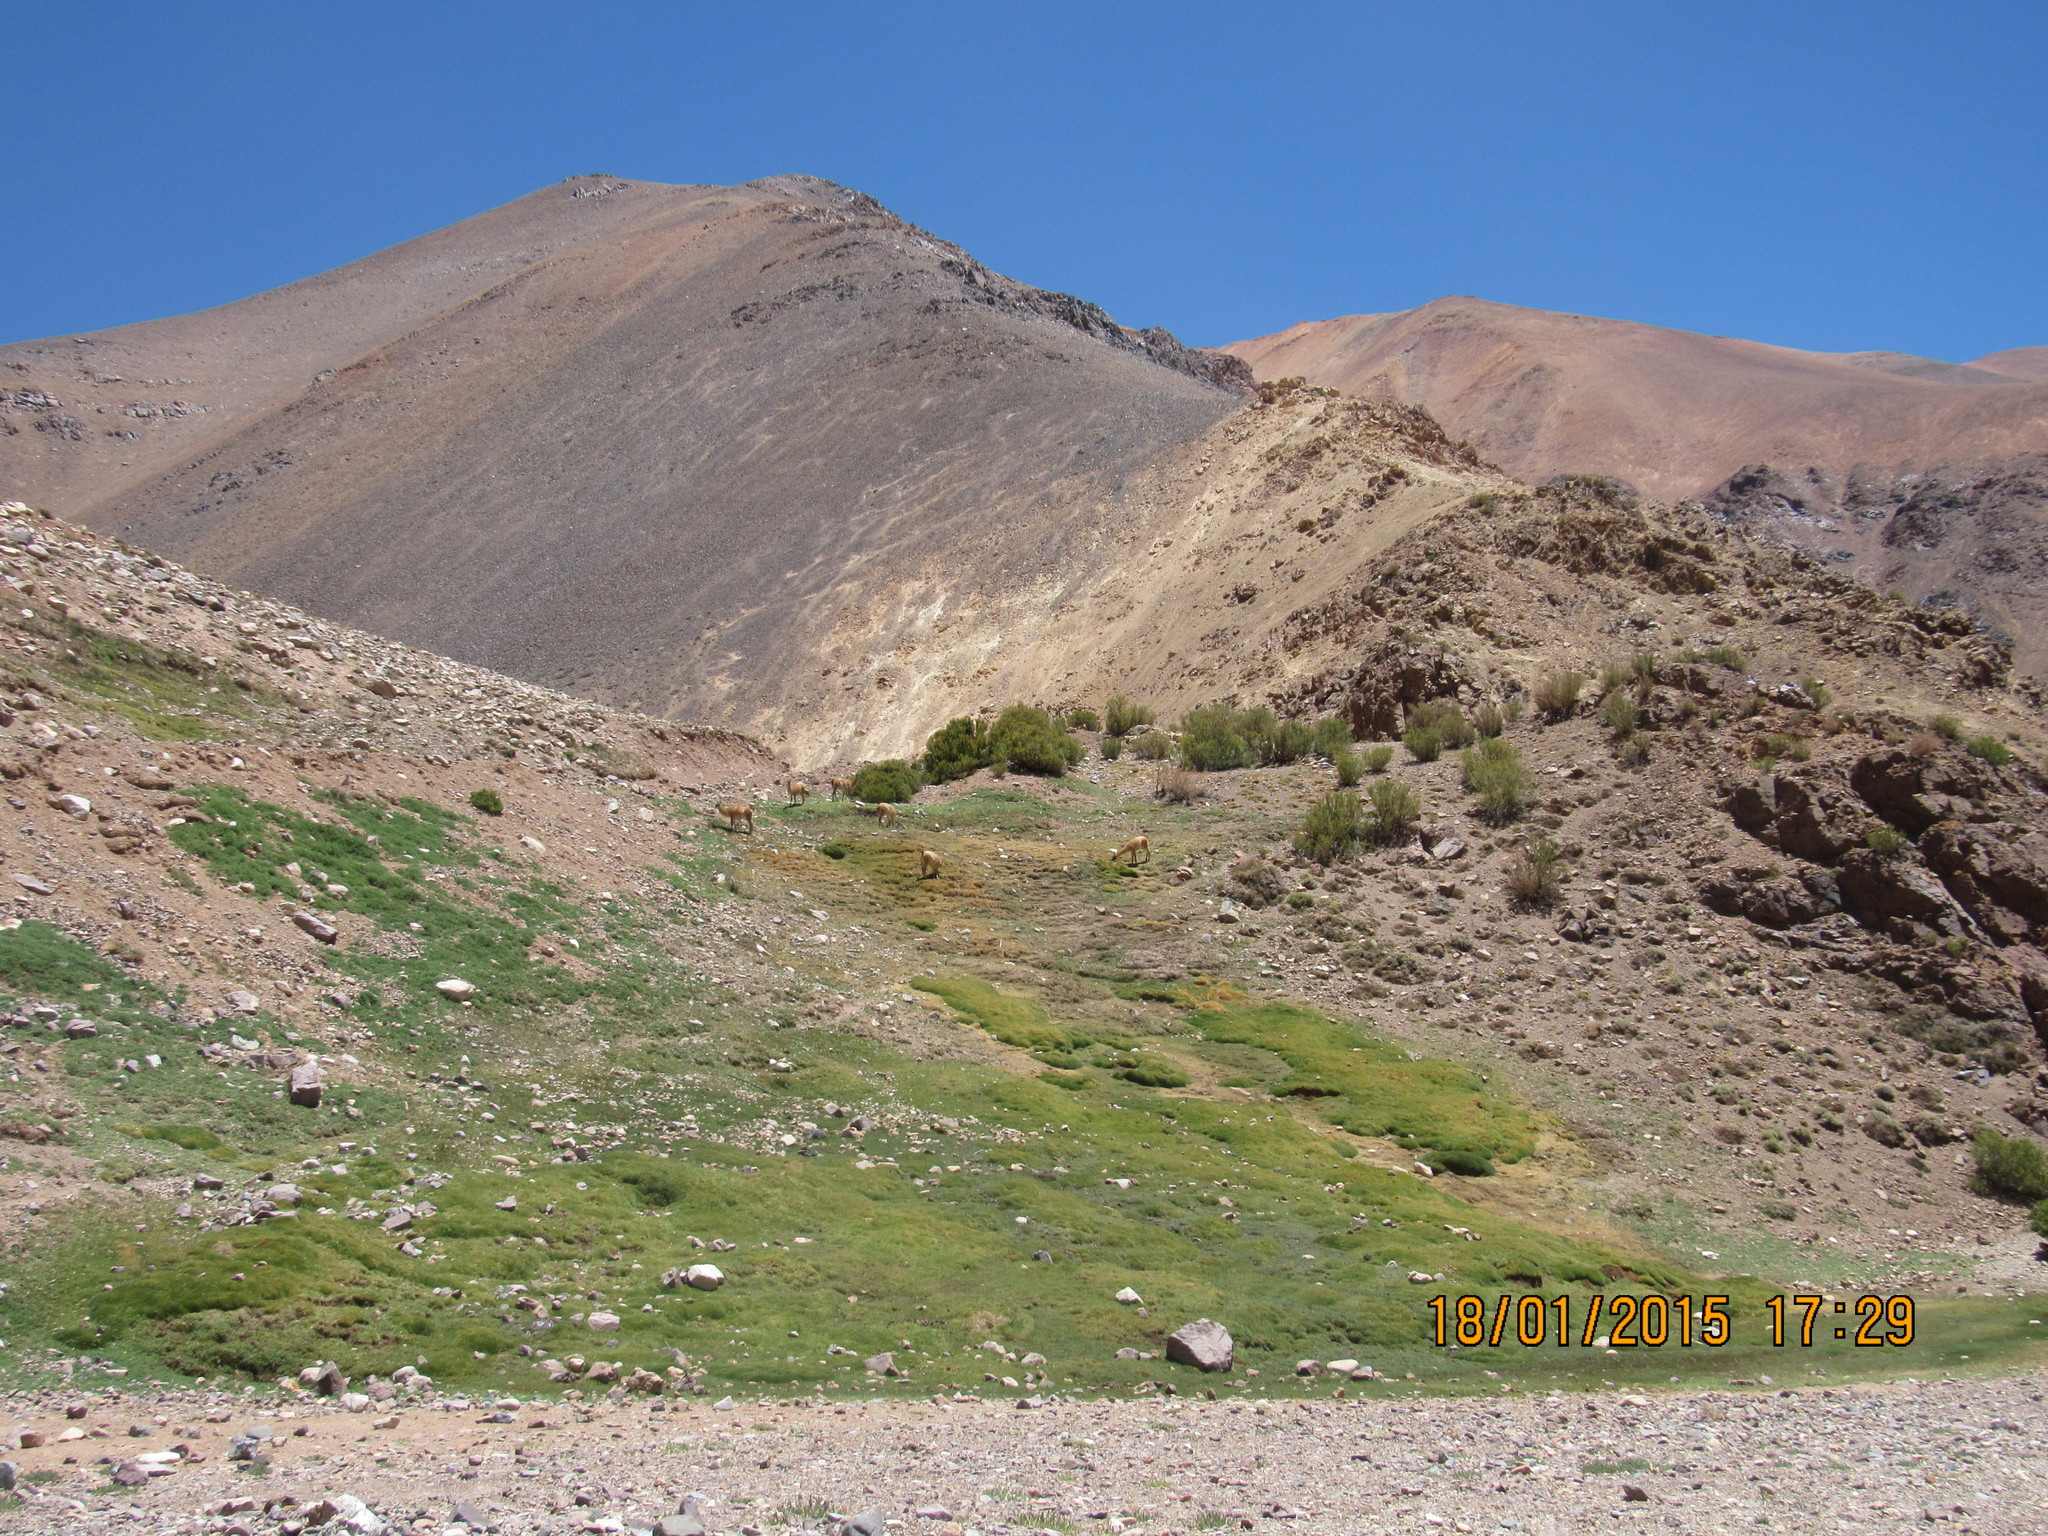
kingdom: Animalia
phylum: Chordata
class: Mammalia
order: Artiodactyla
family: Camelidae
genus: Lama
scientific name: Lama glama
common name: Llama
